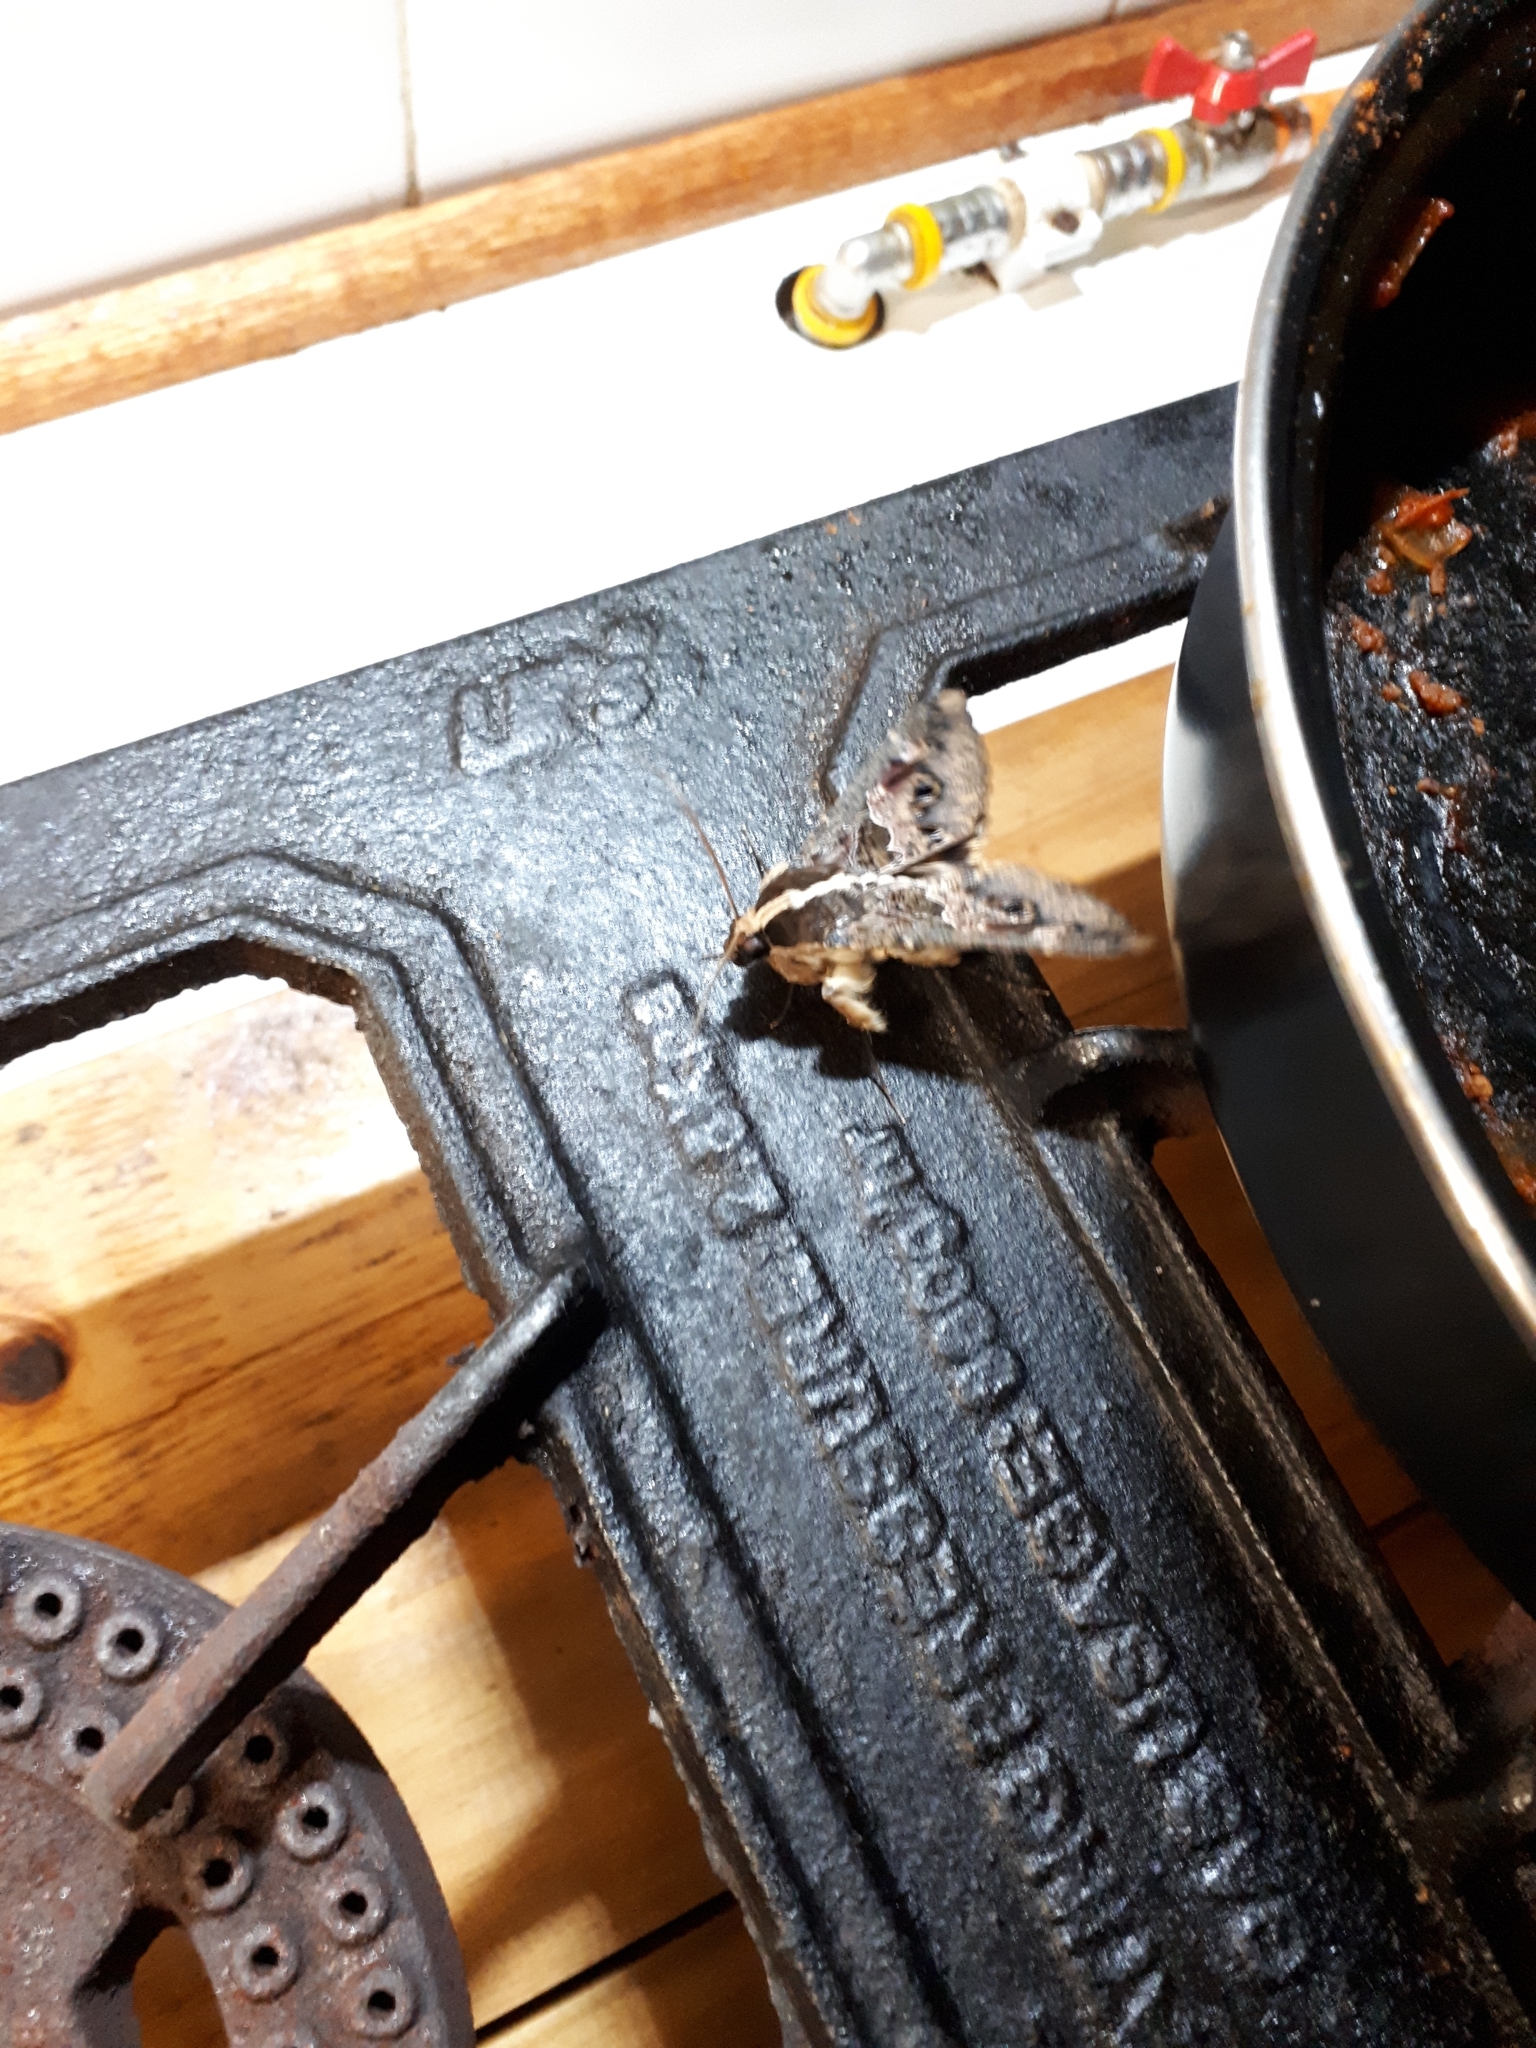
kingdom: Animalia
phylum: Arthropoda
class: Insecta
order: Lepidoptera
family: Erebidae
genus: Sphingomorpha
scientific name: Sphingomorpha chlorea
